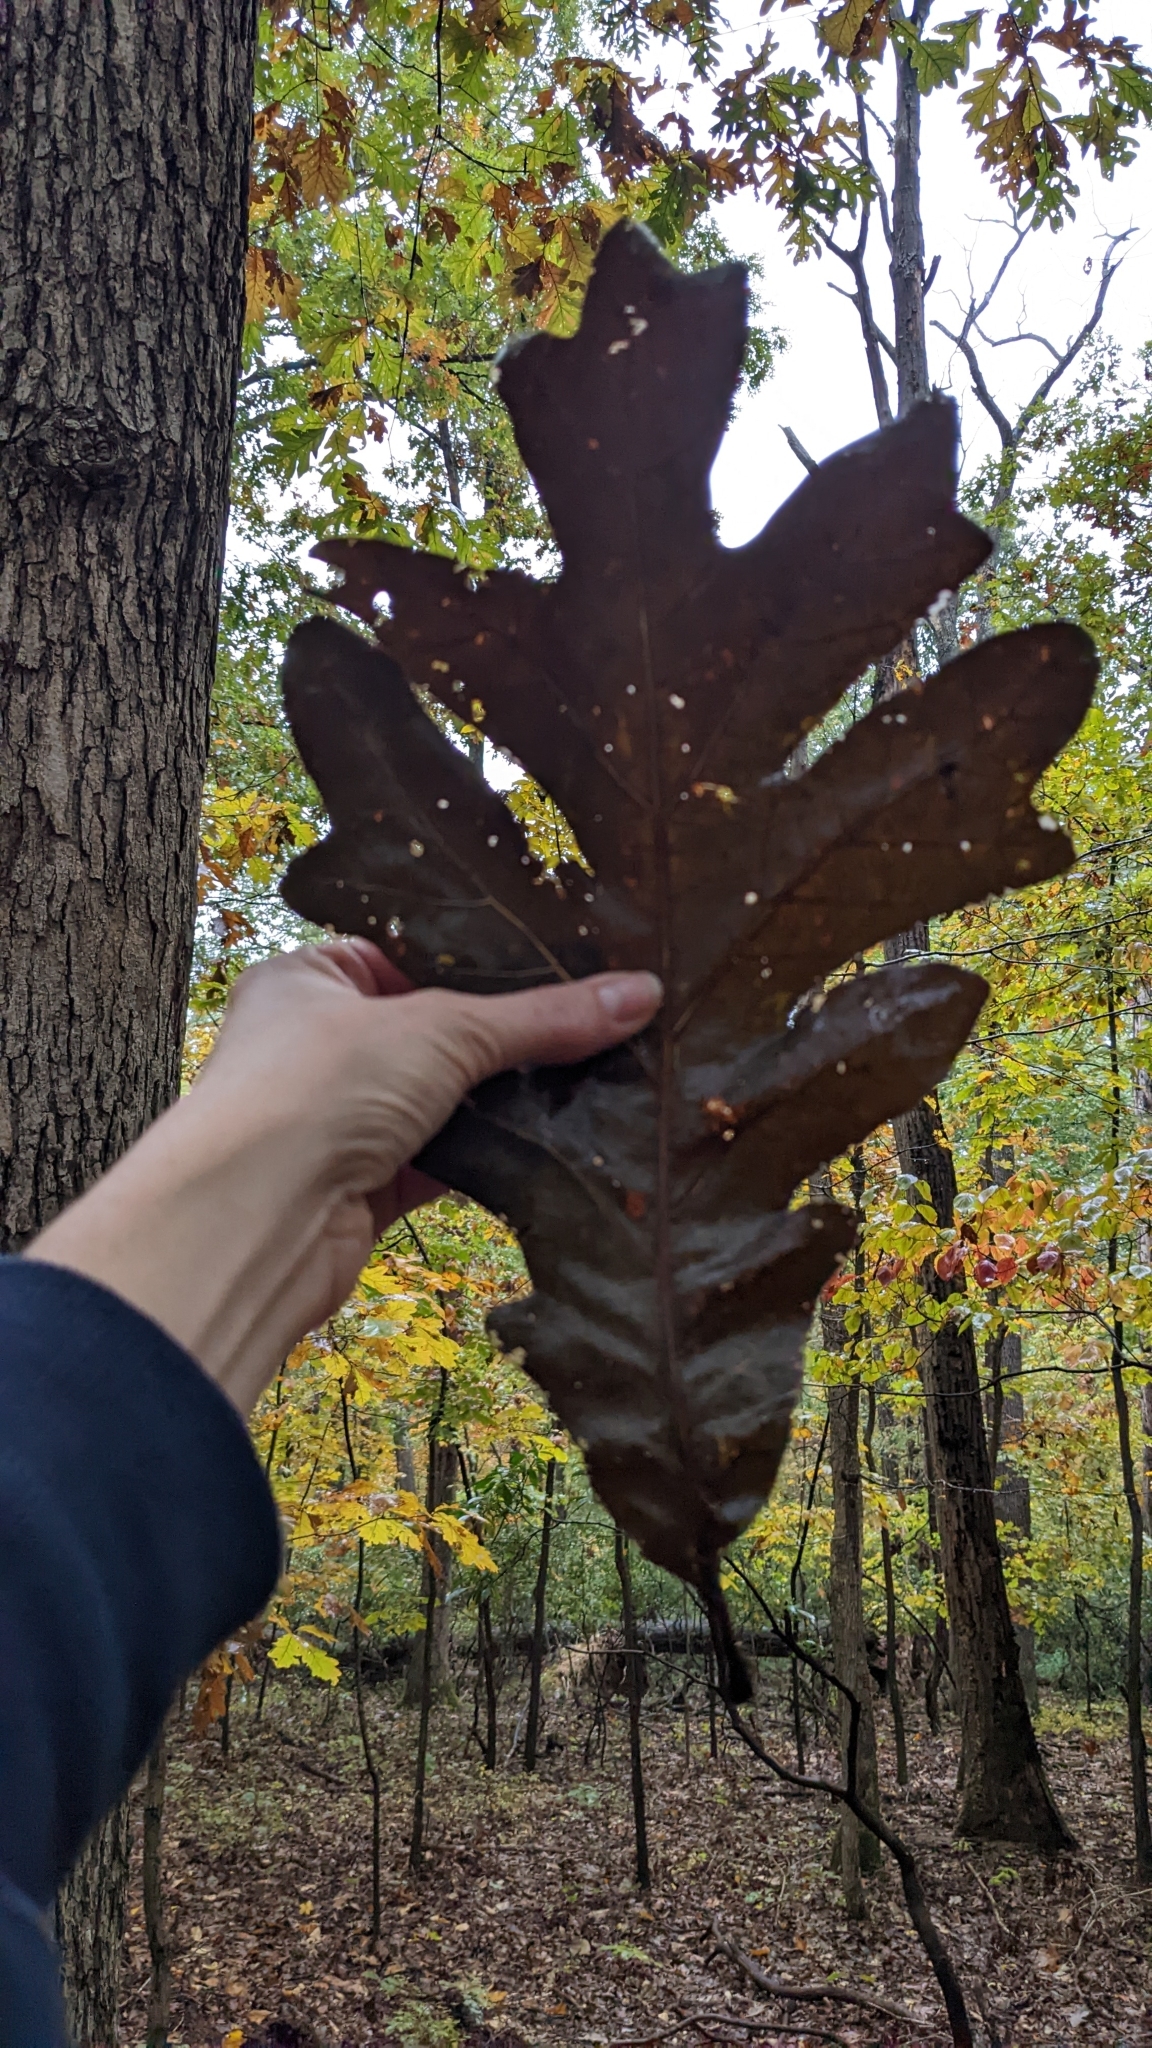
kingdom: Plantae
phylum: Tracheophyta
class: Magnoliopsida
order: Fagales
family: Fagaceae
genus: Quercus
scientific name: Quercus alba
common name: White oak
